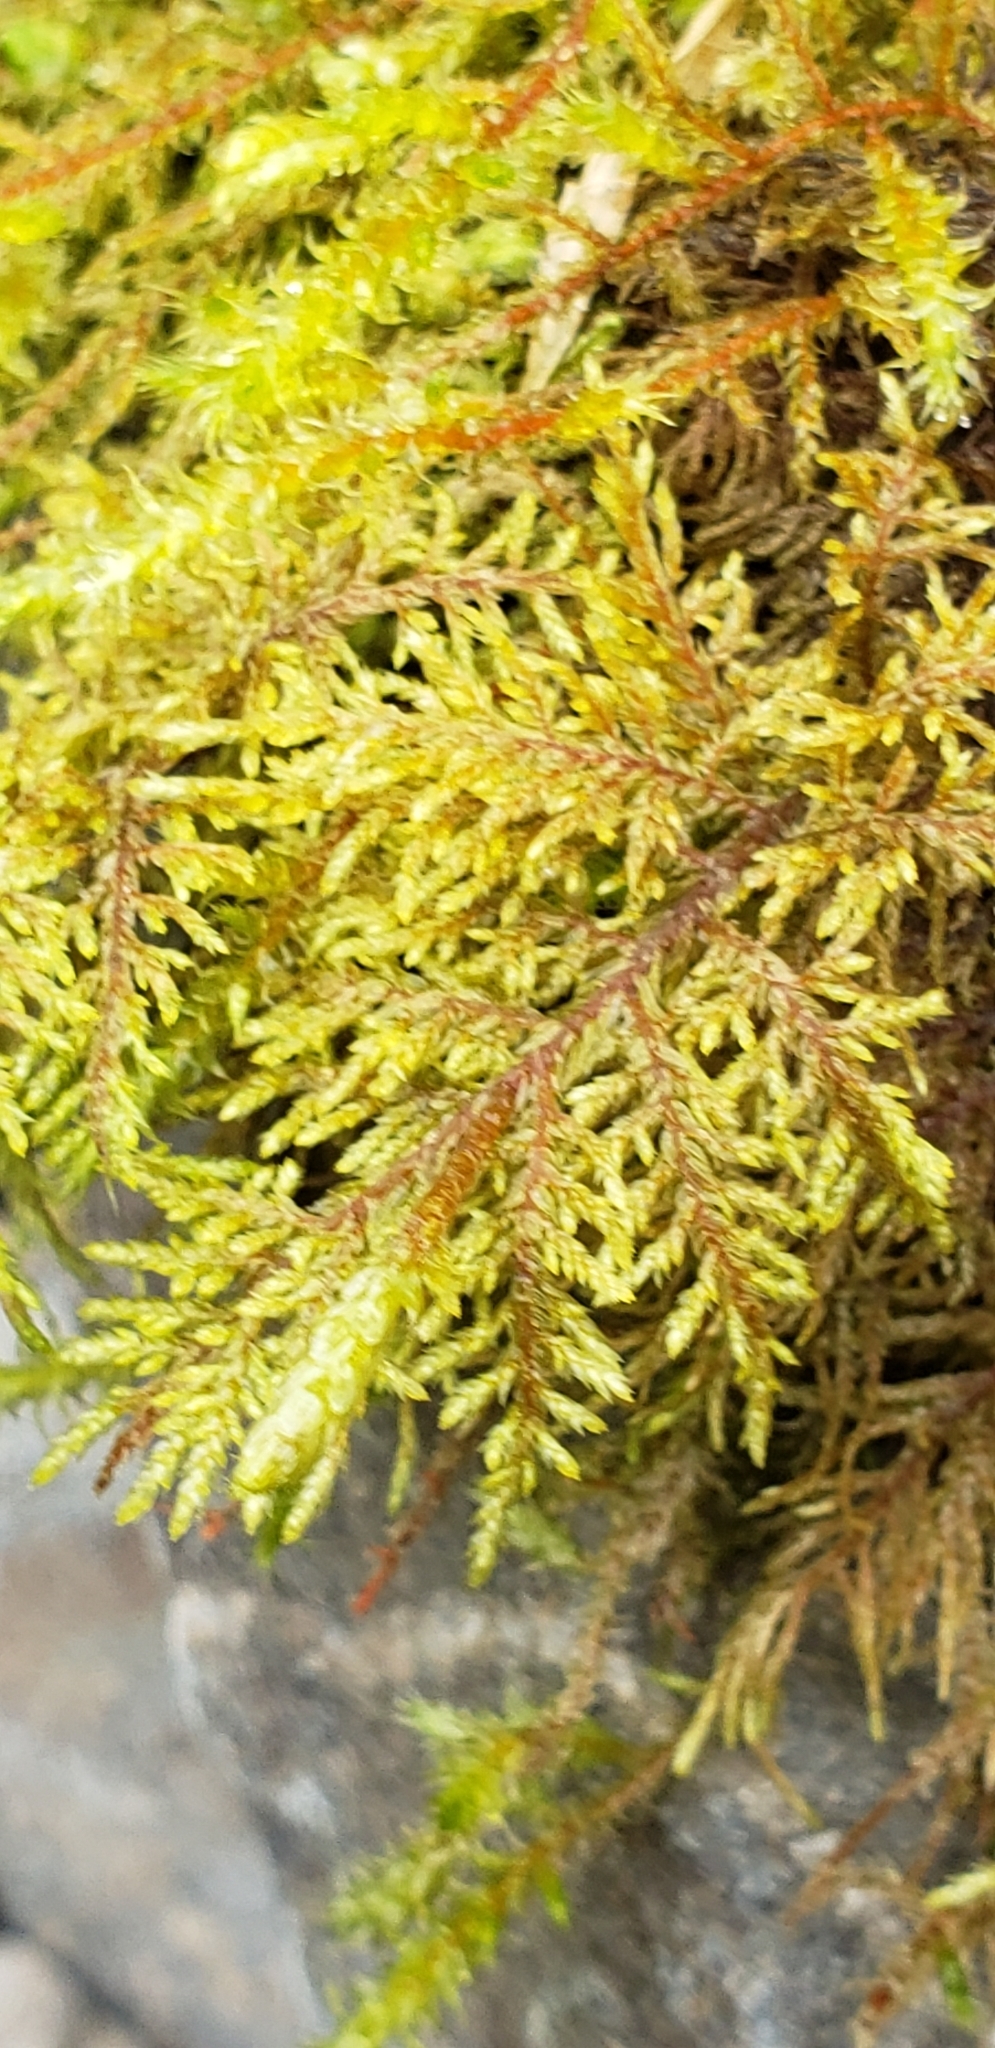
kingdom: Plantae
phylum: Bryophyta
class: Bryopsida
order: Hypnales
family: Hylocomiaceae
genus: Hylocomium
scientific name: Hylocomium splendens
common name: Stairstep moss
